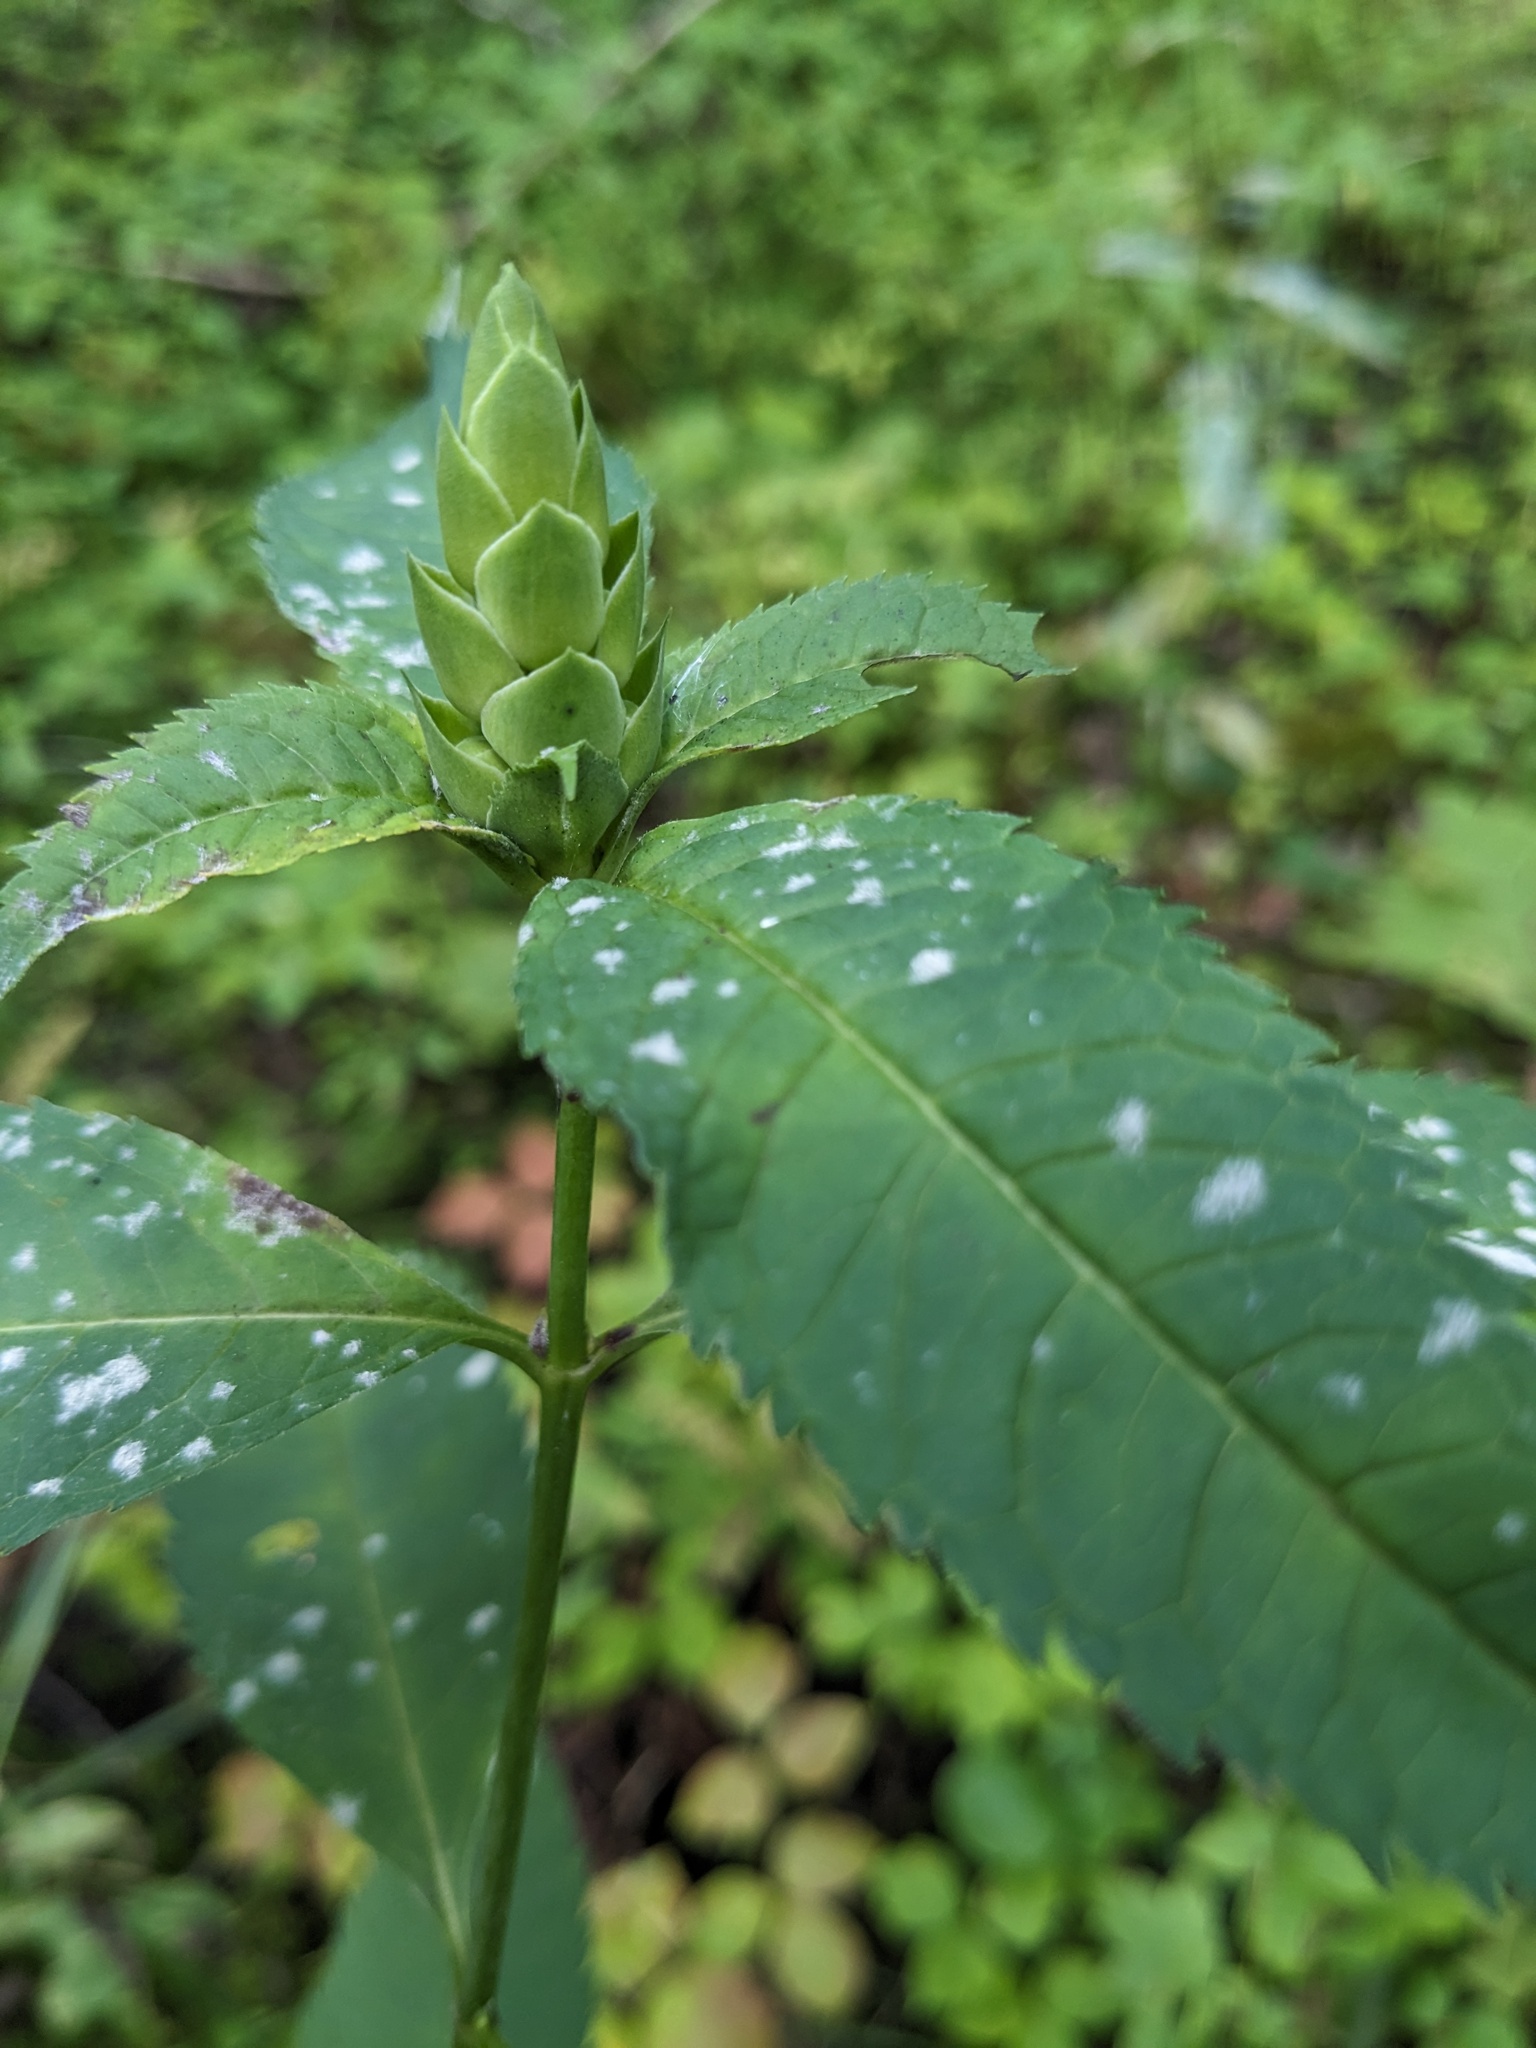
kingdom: Plantae
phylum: Tracheophyta
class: Magnoliopsida
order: Lamiales
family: Plantaginaceae
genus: Chelone
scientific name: Chelone glabra
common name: Snakehead
